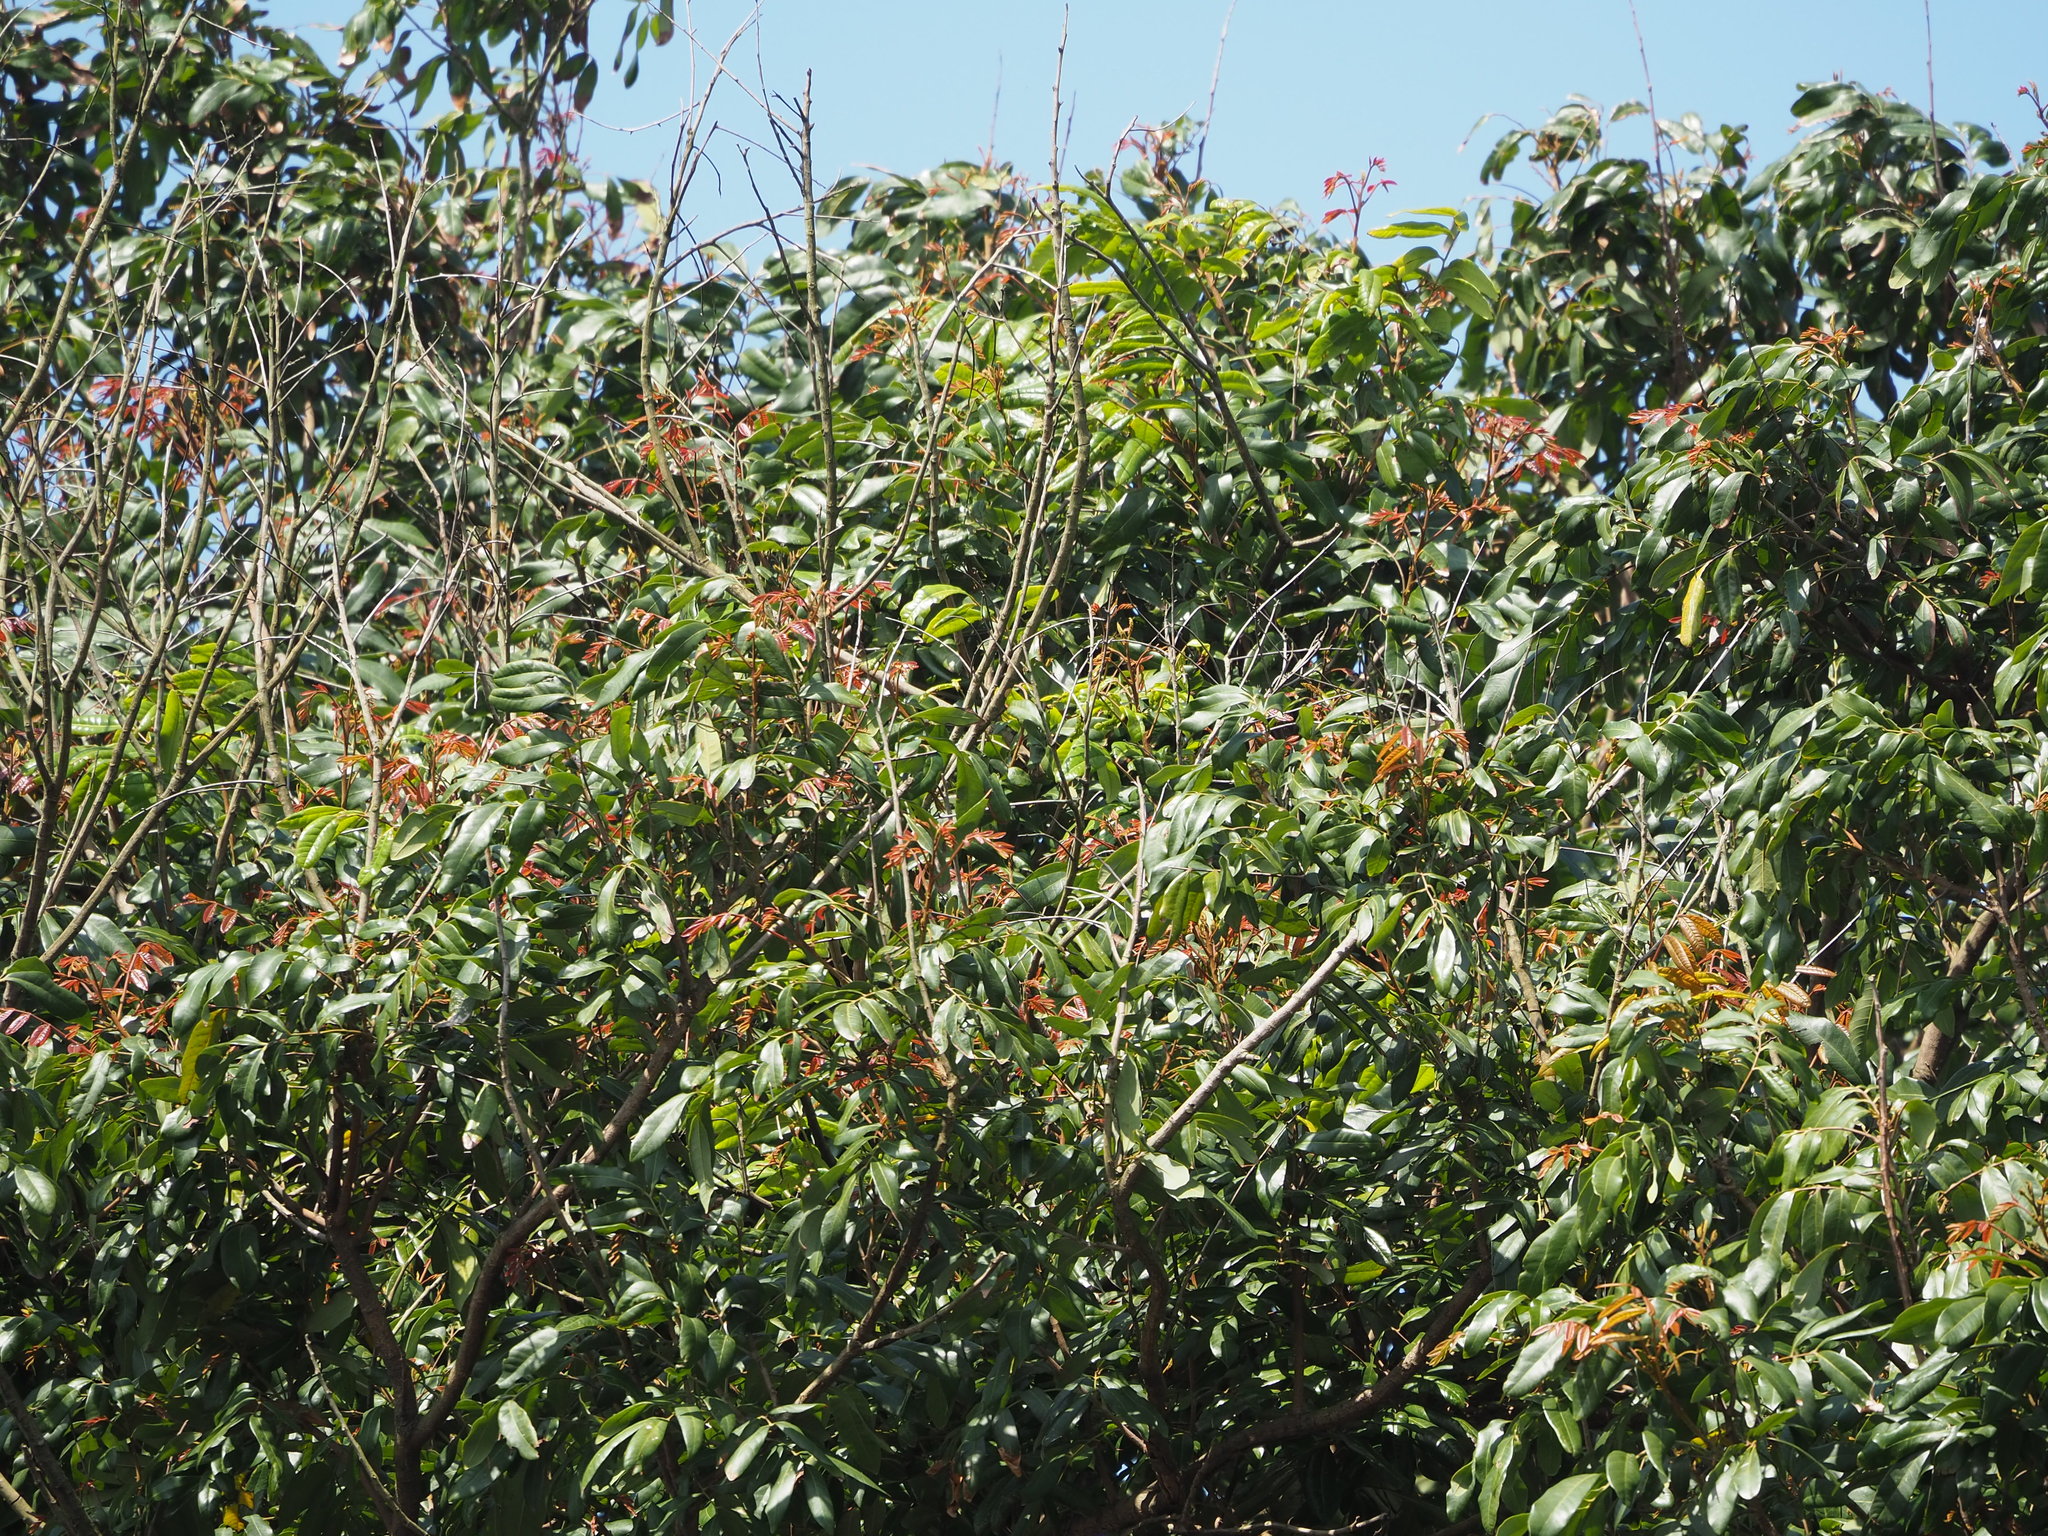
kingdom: Plantae
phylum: Tracheophyta
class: Magnoliopsida
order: Sapindales
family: Sapindaceae
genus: Dimocarpus
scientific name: Dimocarpus longan
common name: Longan
